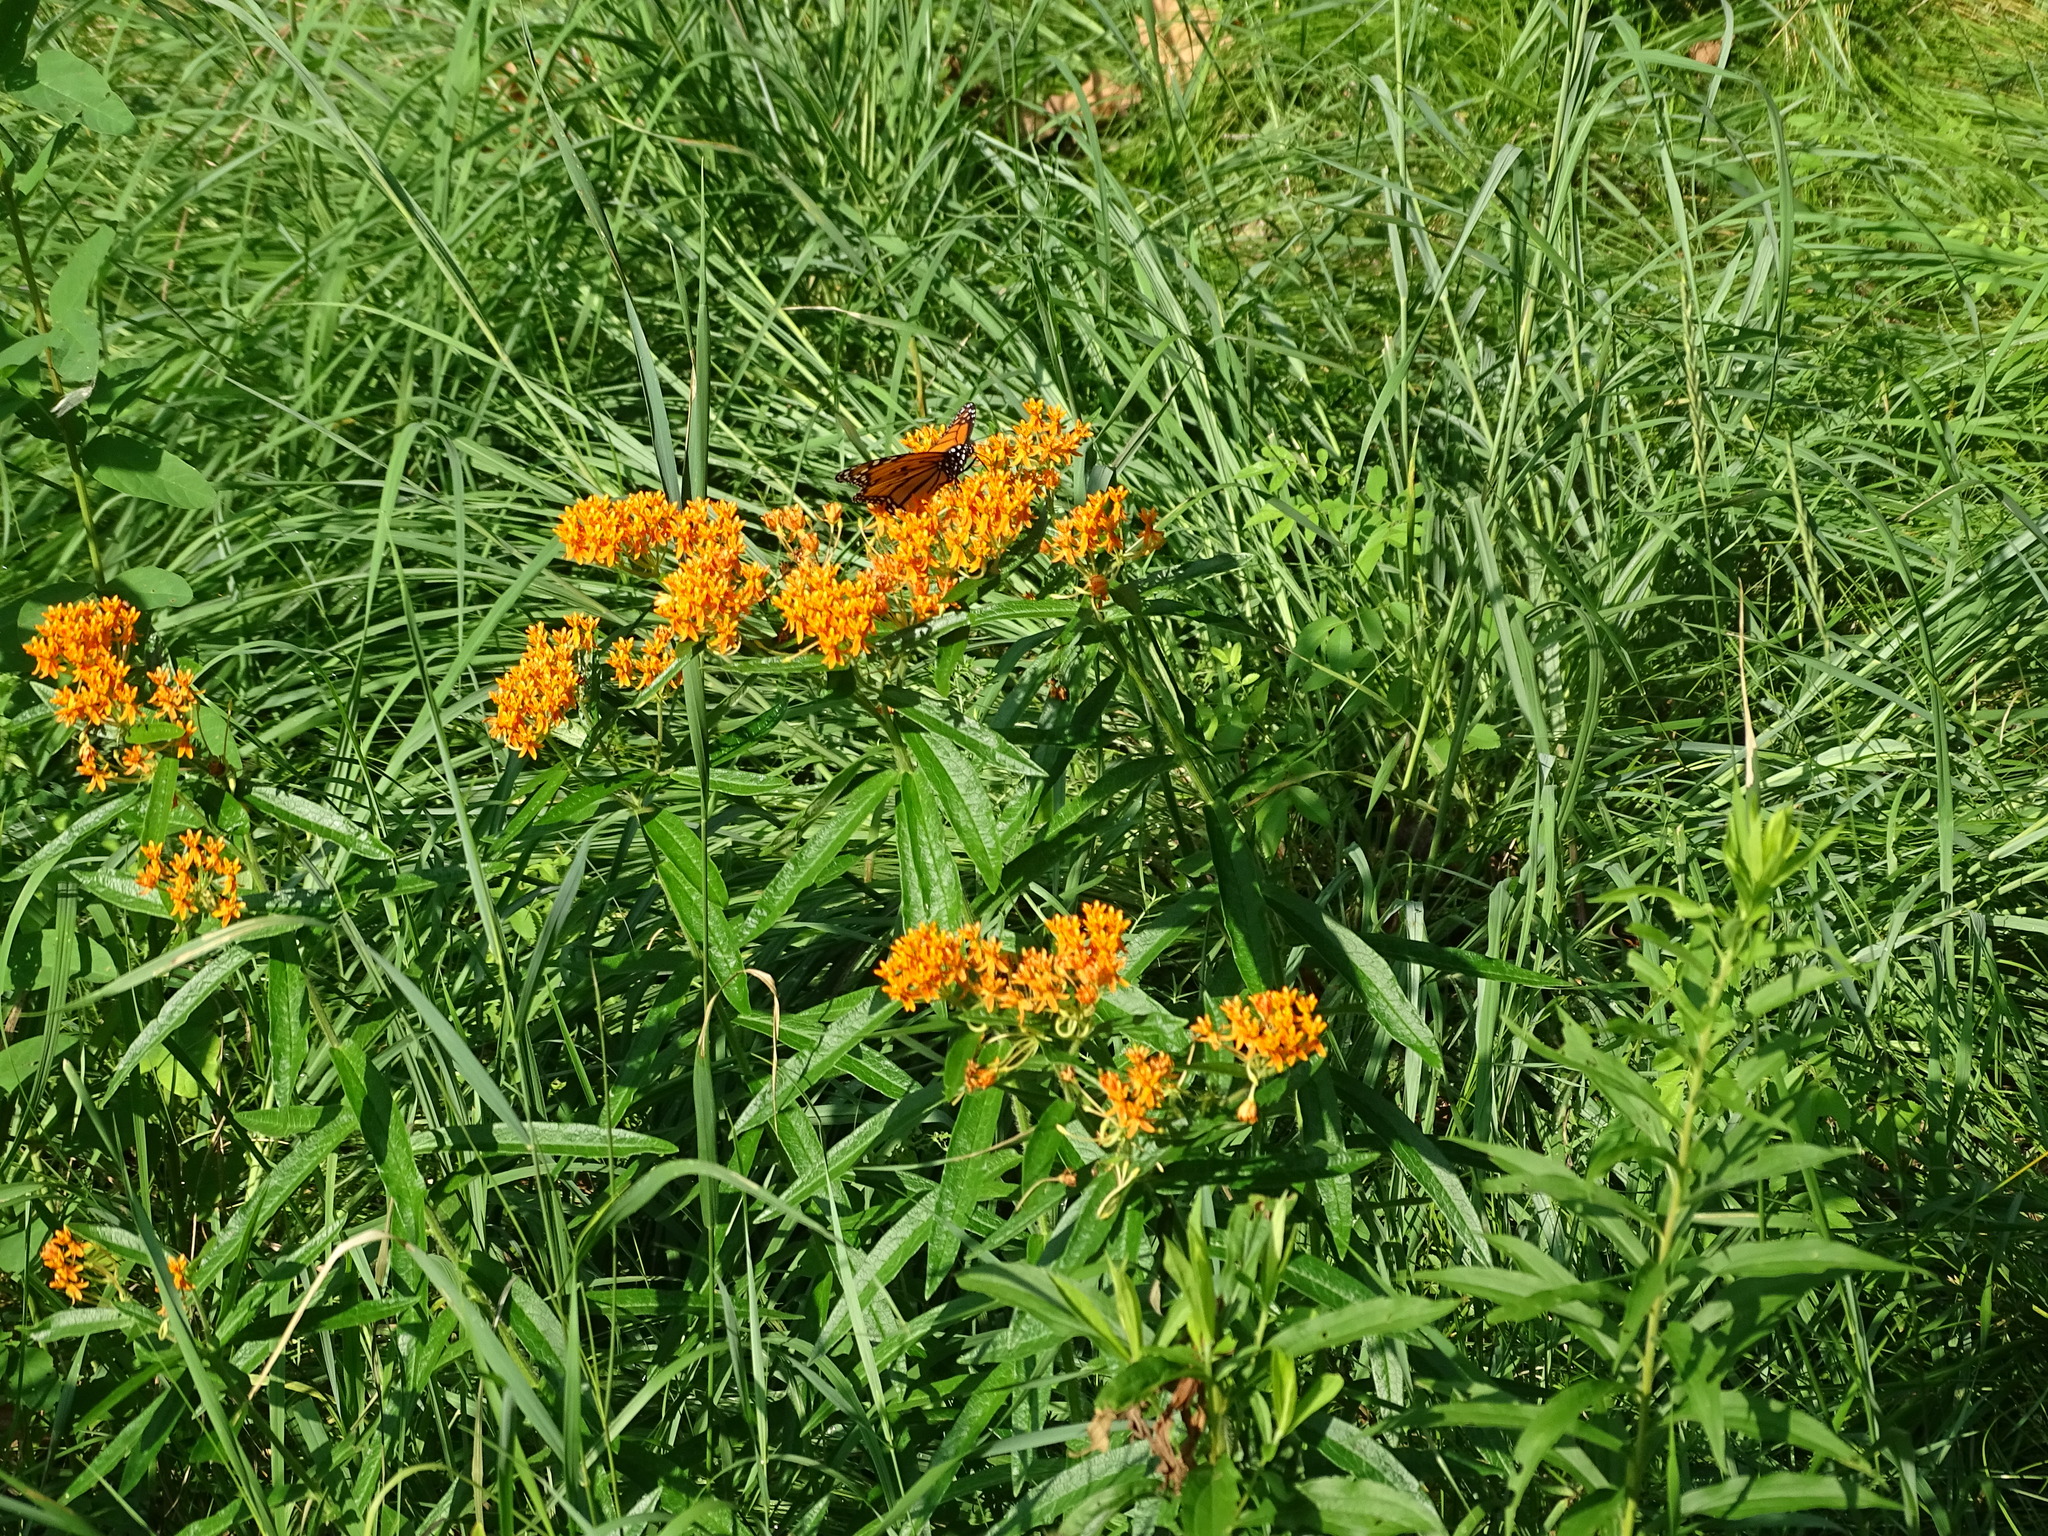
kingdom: Plantae
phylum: Tracheophyta
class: Magnoliopsida
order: Gentianales
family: Apocynaceae
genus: Asclepias
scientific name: Asclepias tuberosa
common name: Butterfly milkweed
